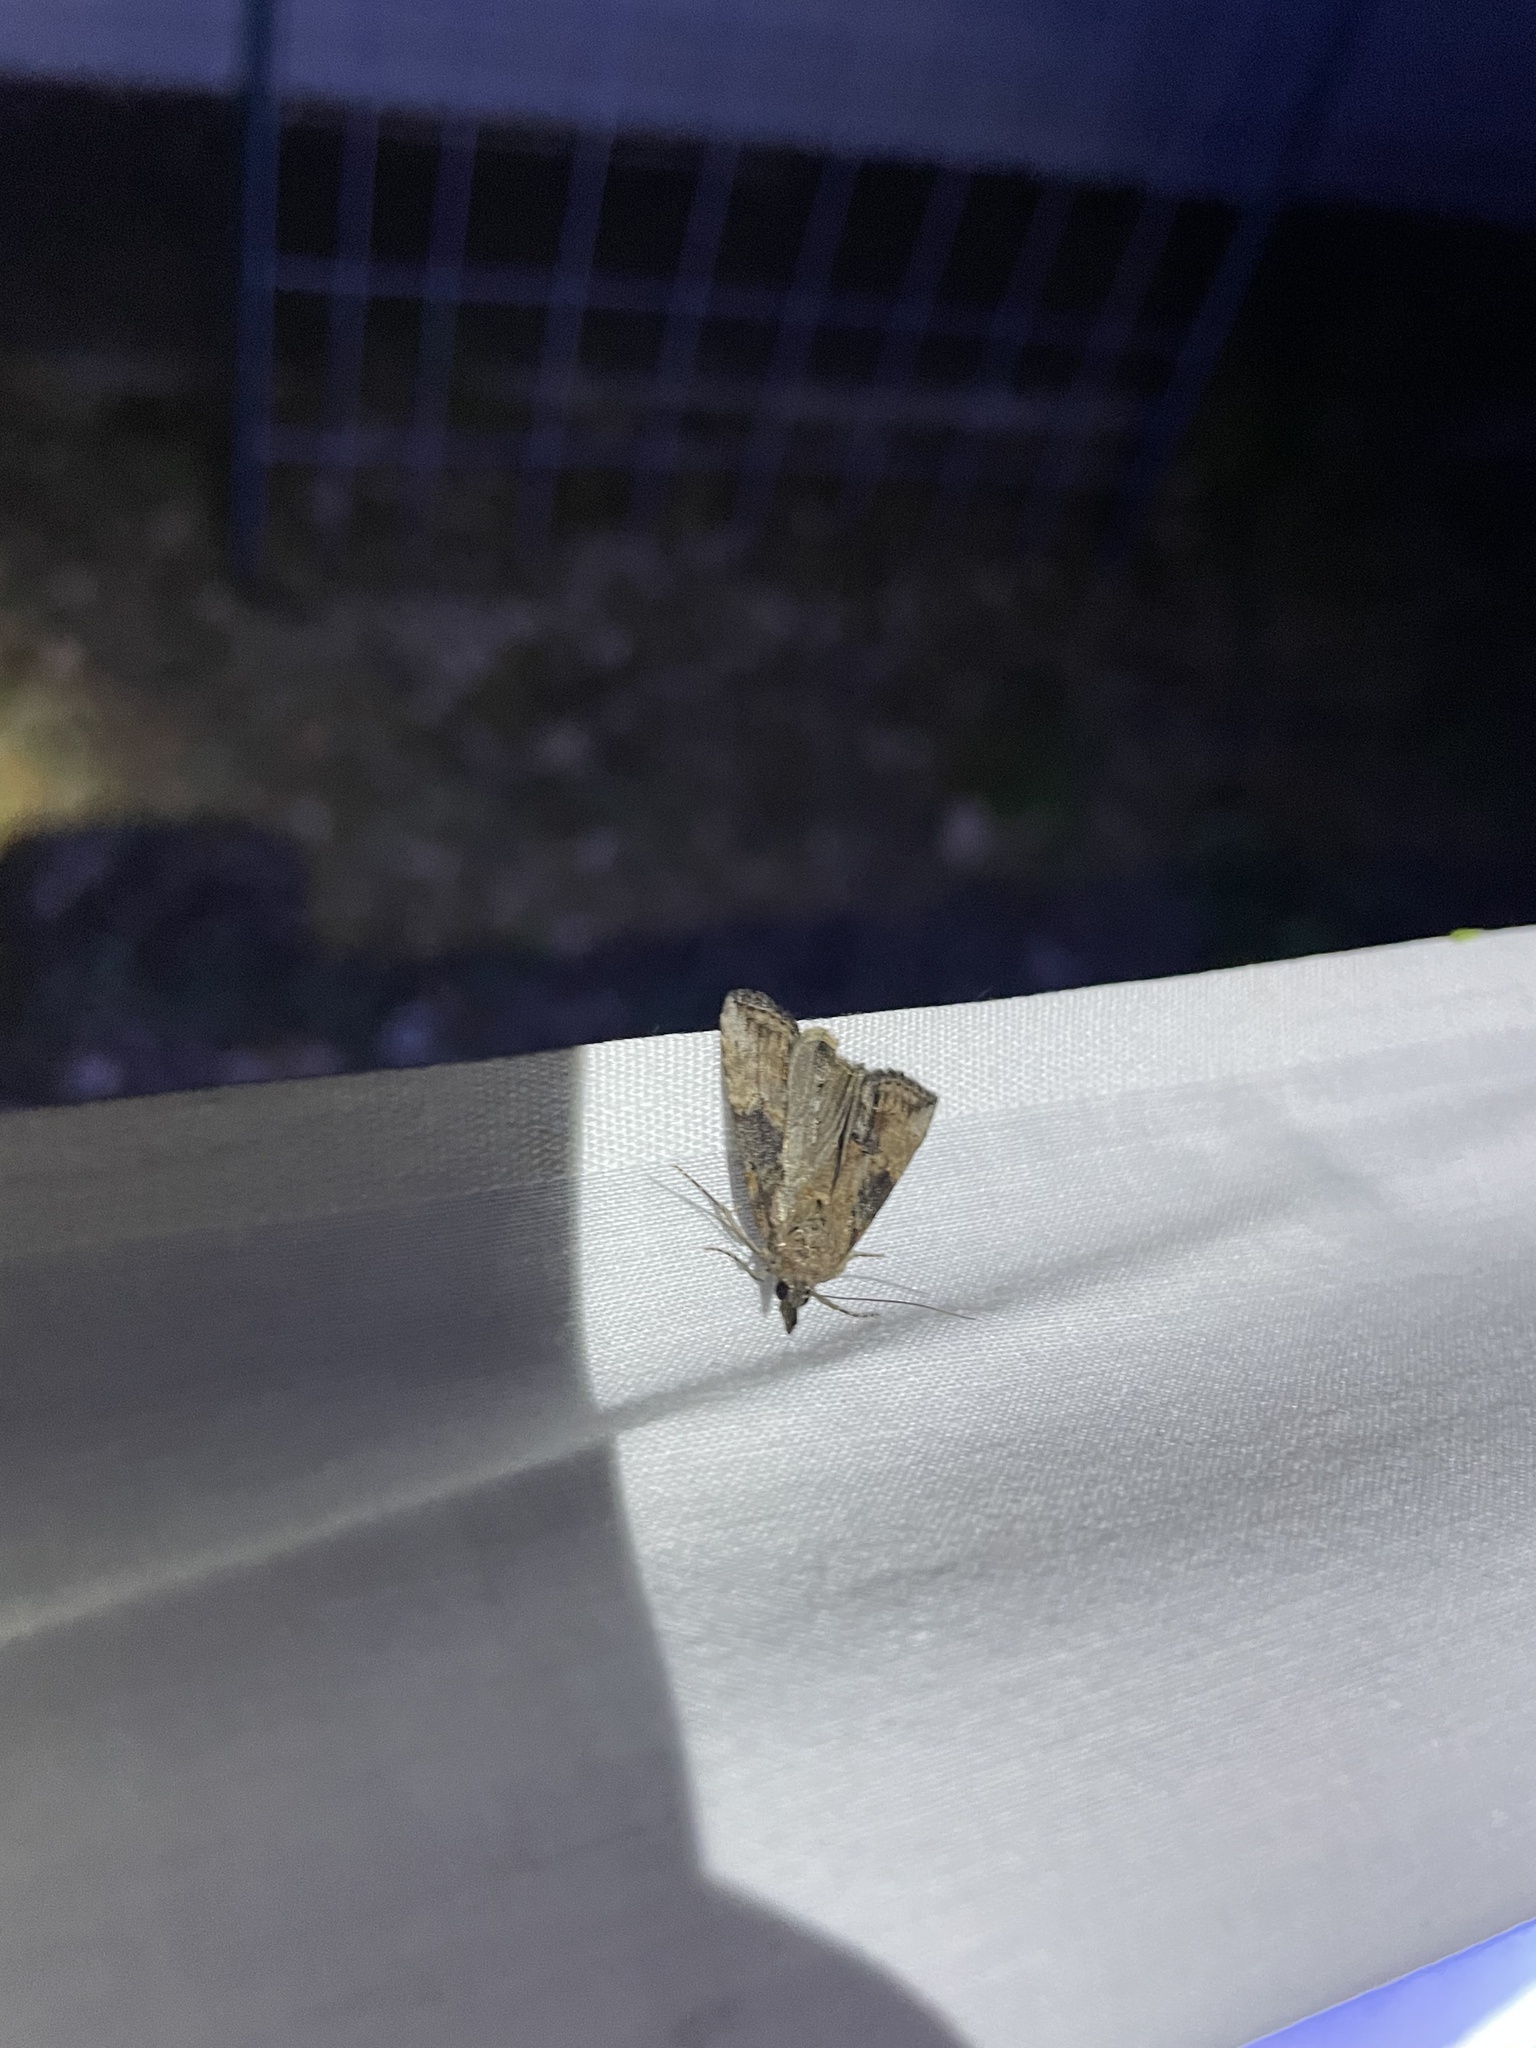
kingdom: Animalia
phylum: Arthropoda
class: Insecta
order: Lepidoptera
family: Erebidae
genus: Hypena
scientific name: Hypena scabra
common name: Green cloverworm
